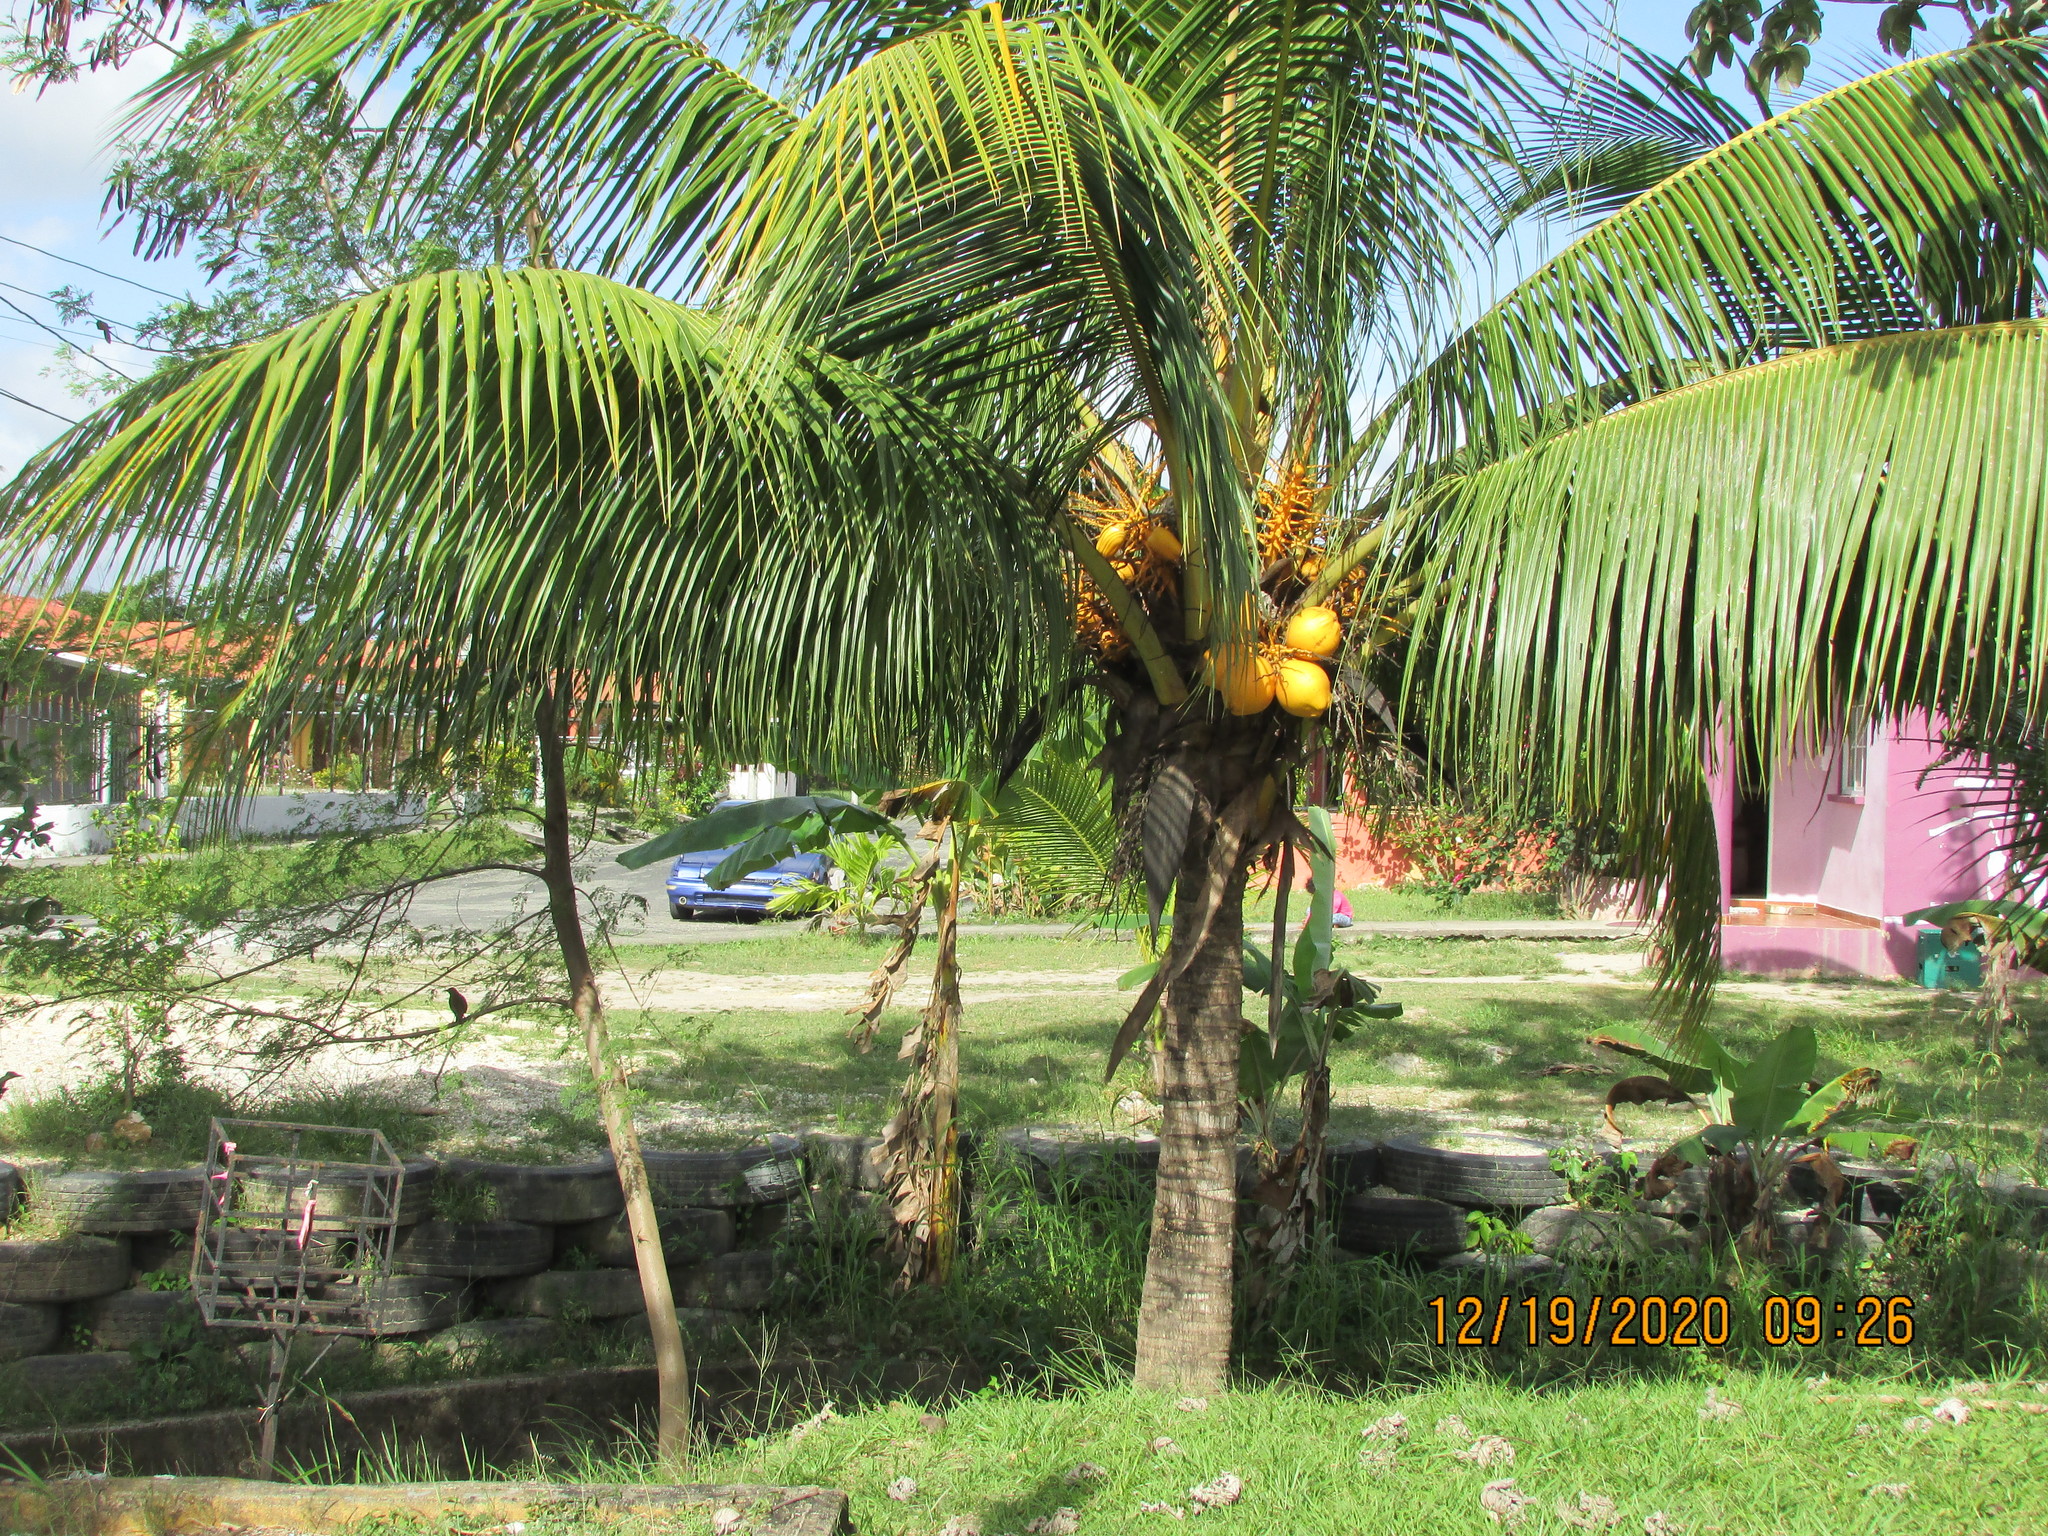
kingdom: Plantae
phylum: Tracheophyta
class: Liliopsida
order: Arecales
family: Arecaceae
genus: Cocos
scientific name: Cocos nucifera
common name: Coconut palm
